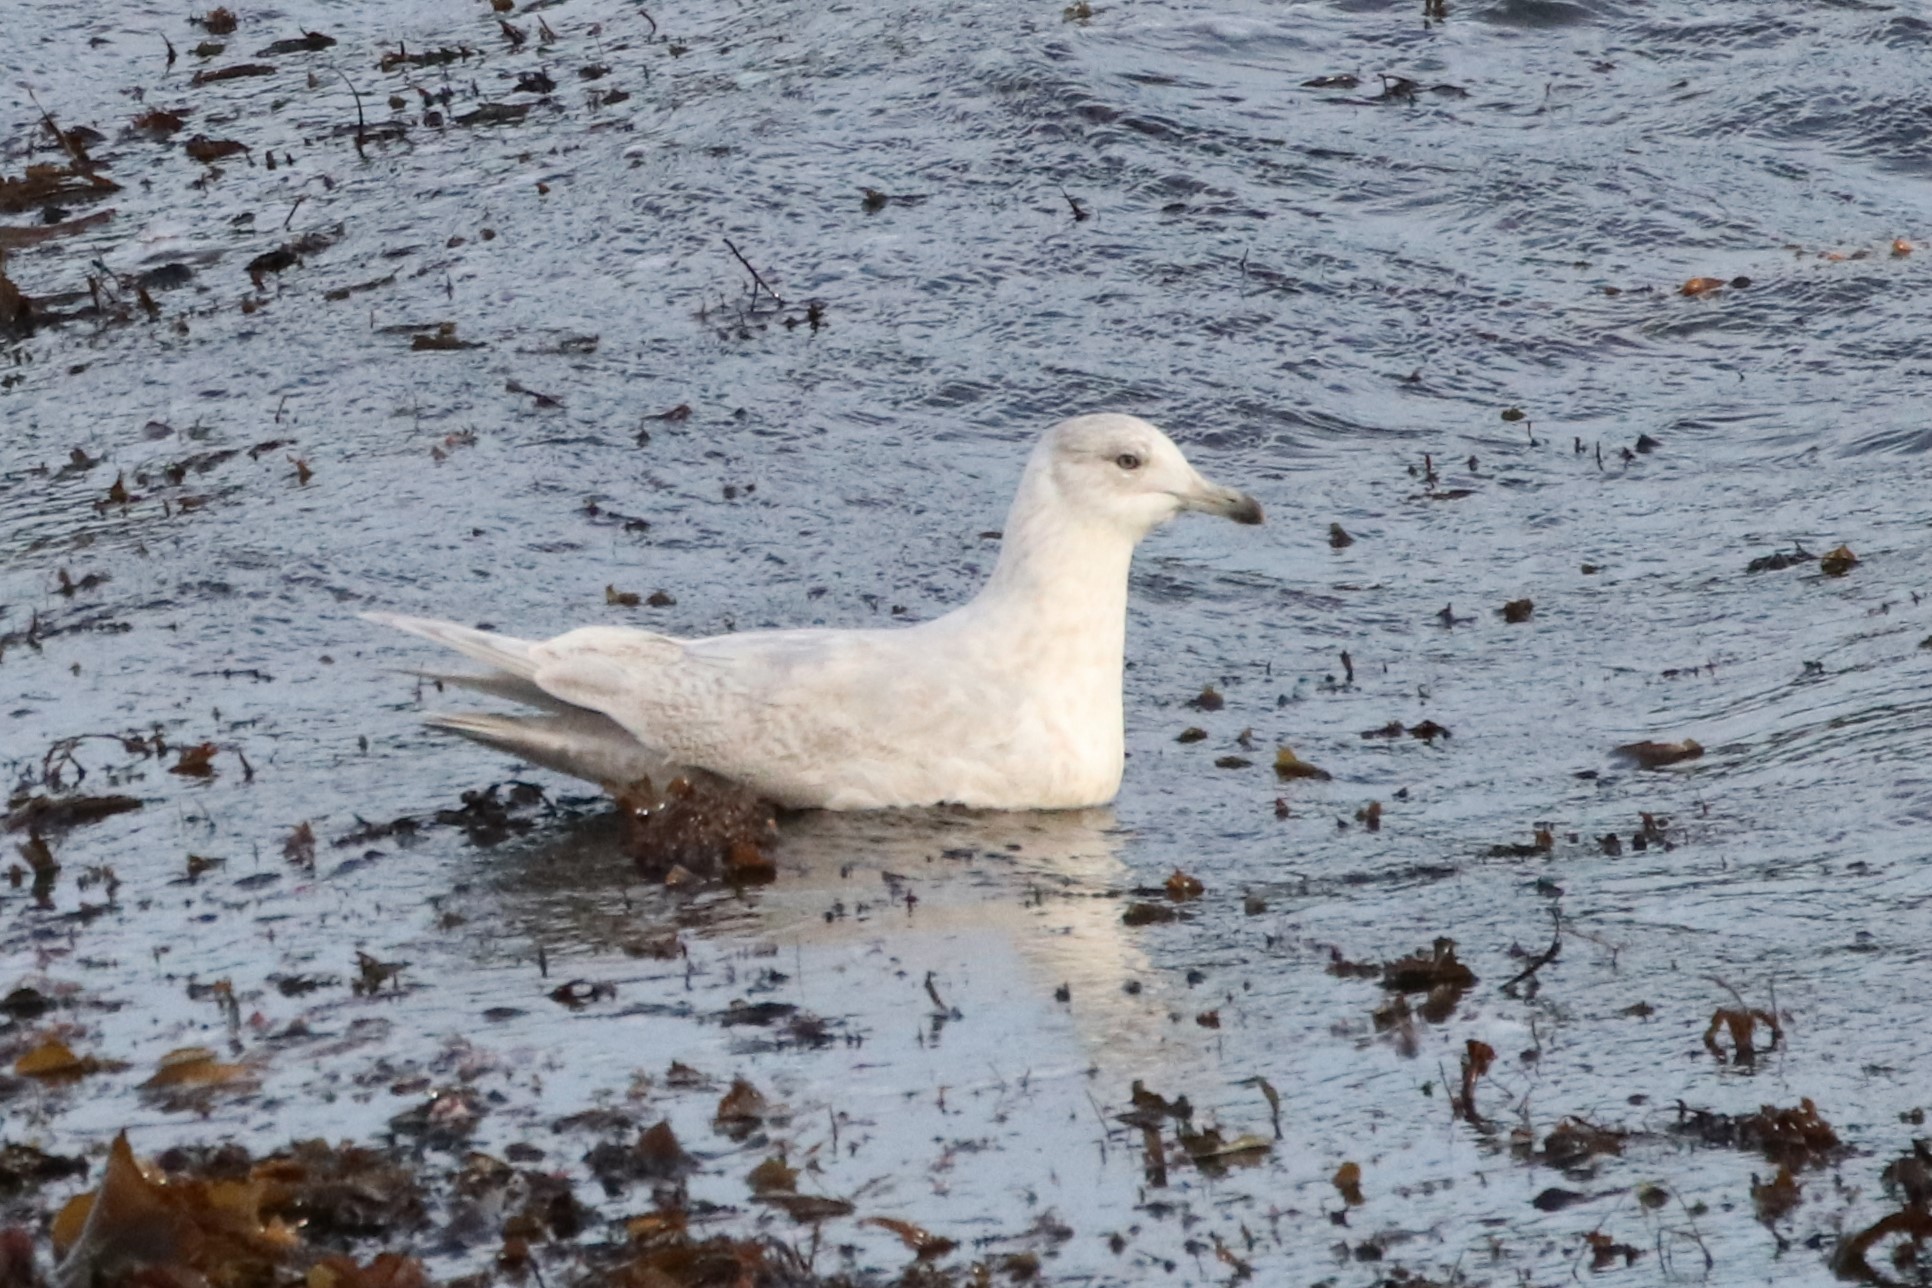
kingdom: Animalia
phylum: Chordata
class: Aves
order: Charadriiformes
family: Laridae
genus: Larus
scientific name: Larus glaucoides
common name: Iceland gull
